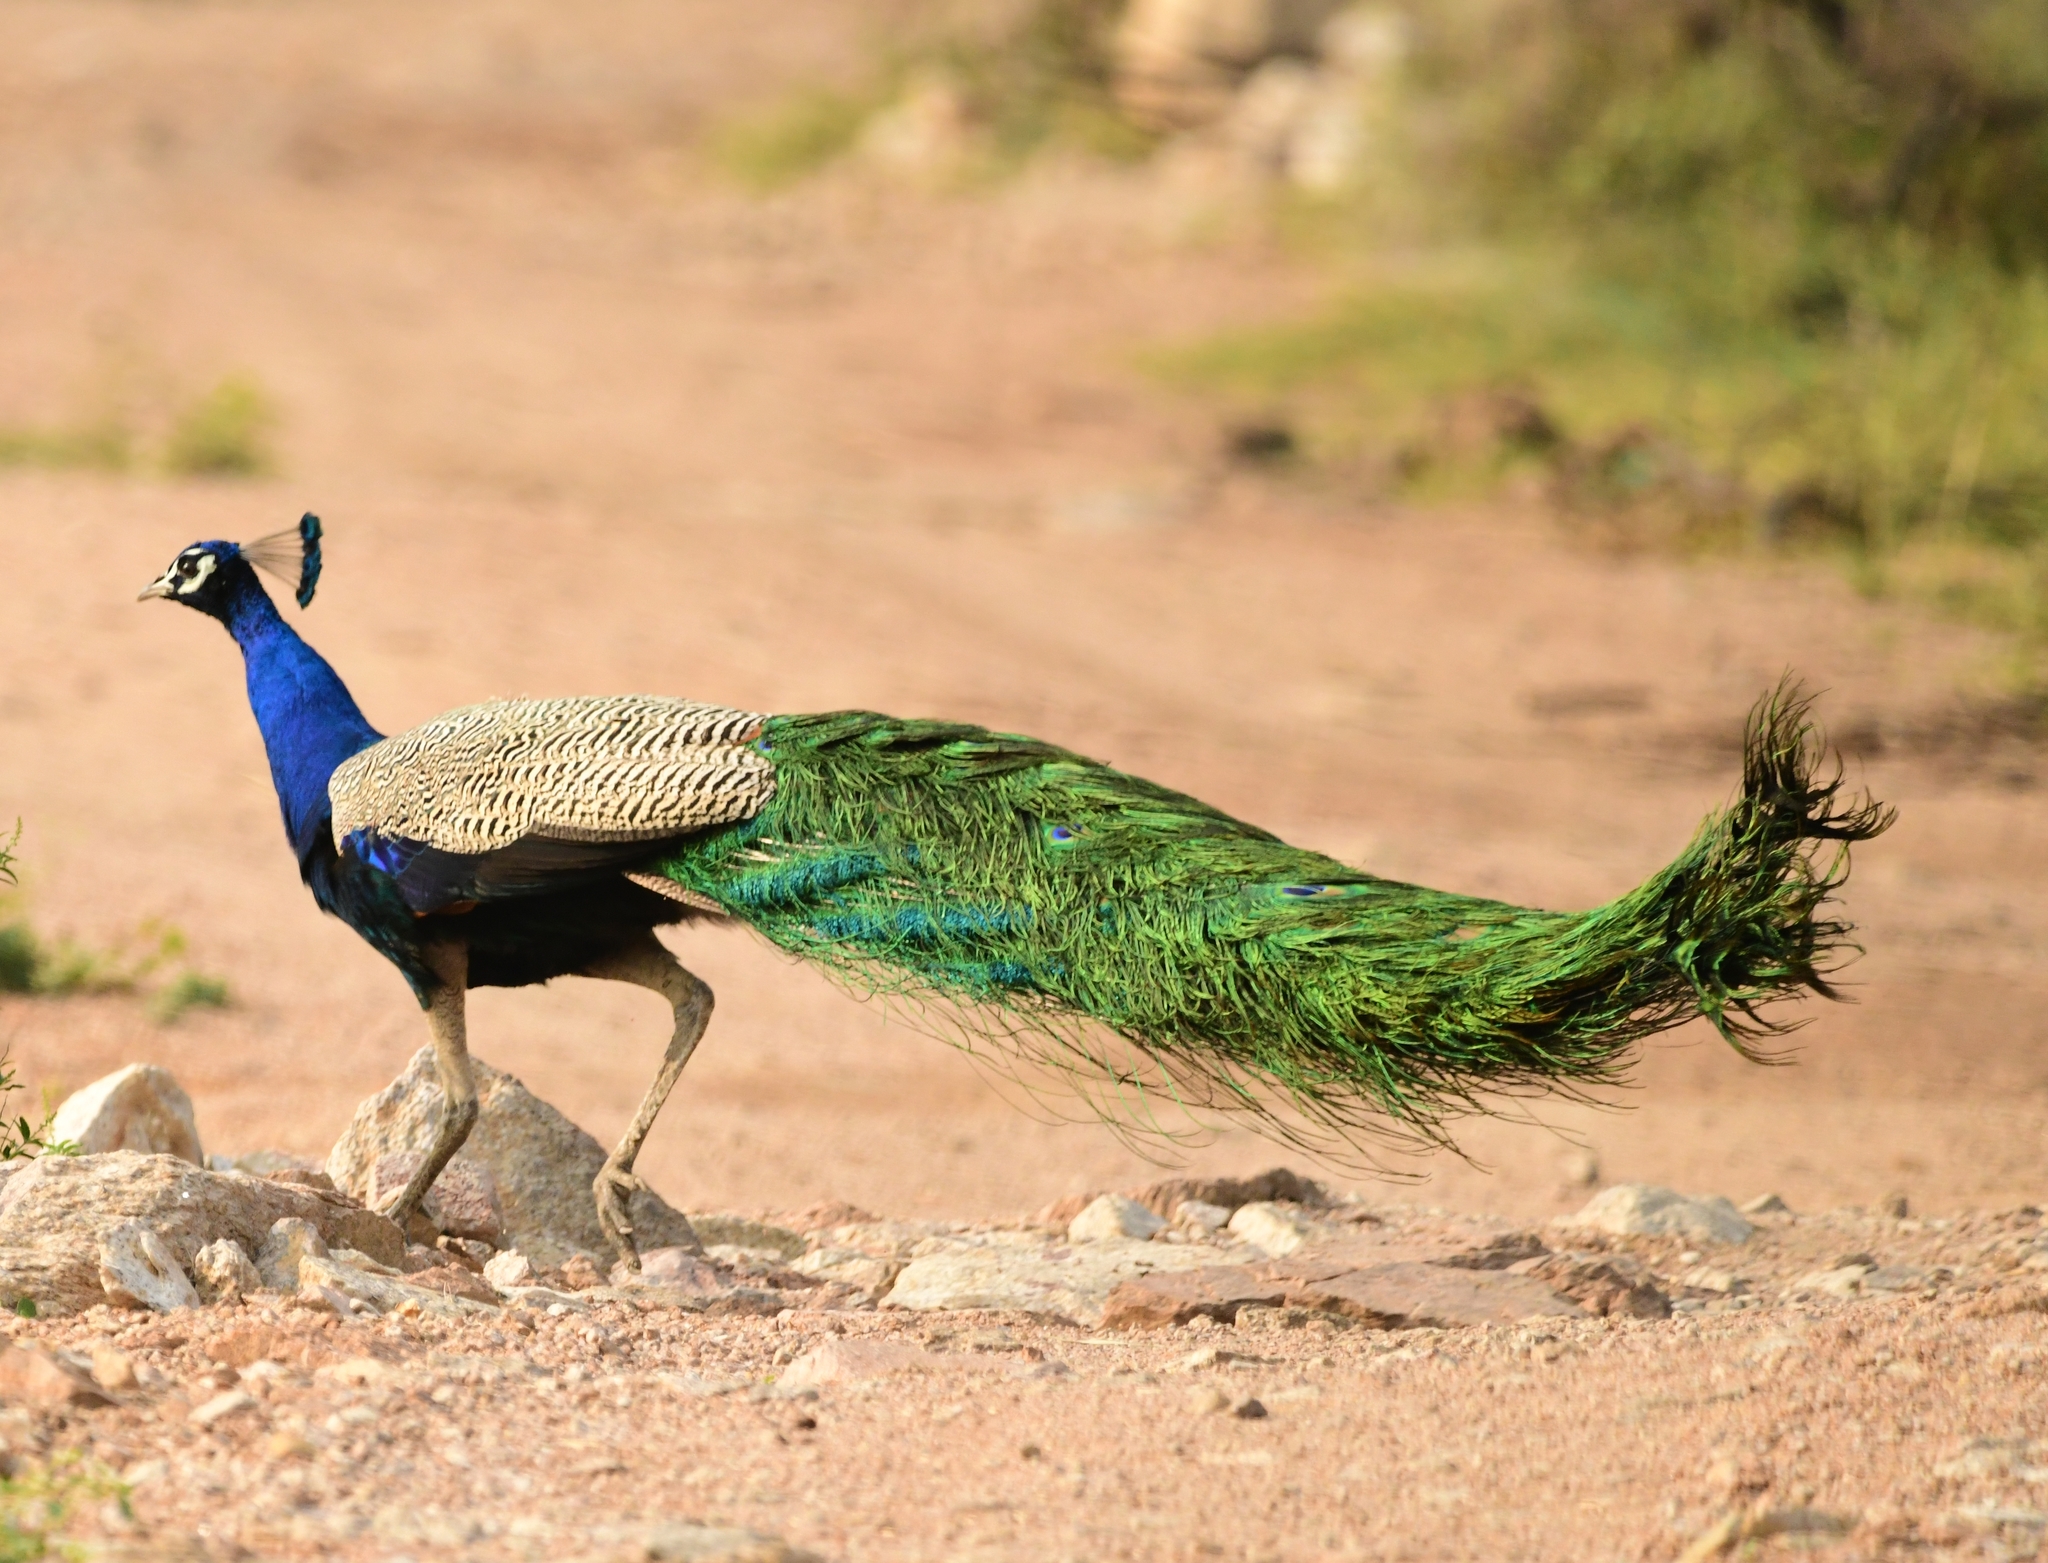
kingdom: Animalia
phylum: Chordata
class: Aves
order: Galliformes
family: Phasianidae
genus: Pavo
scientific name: Pavo cristatus
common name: Indian peafowl
